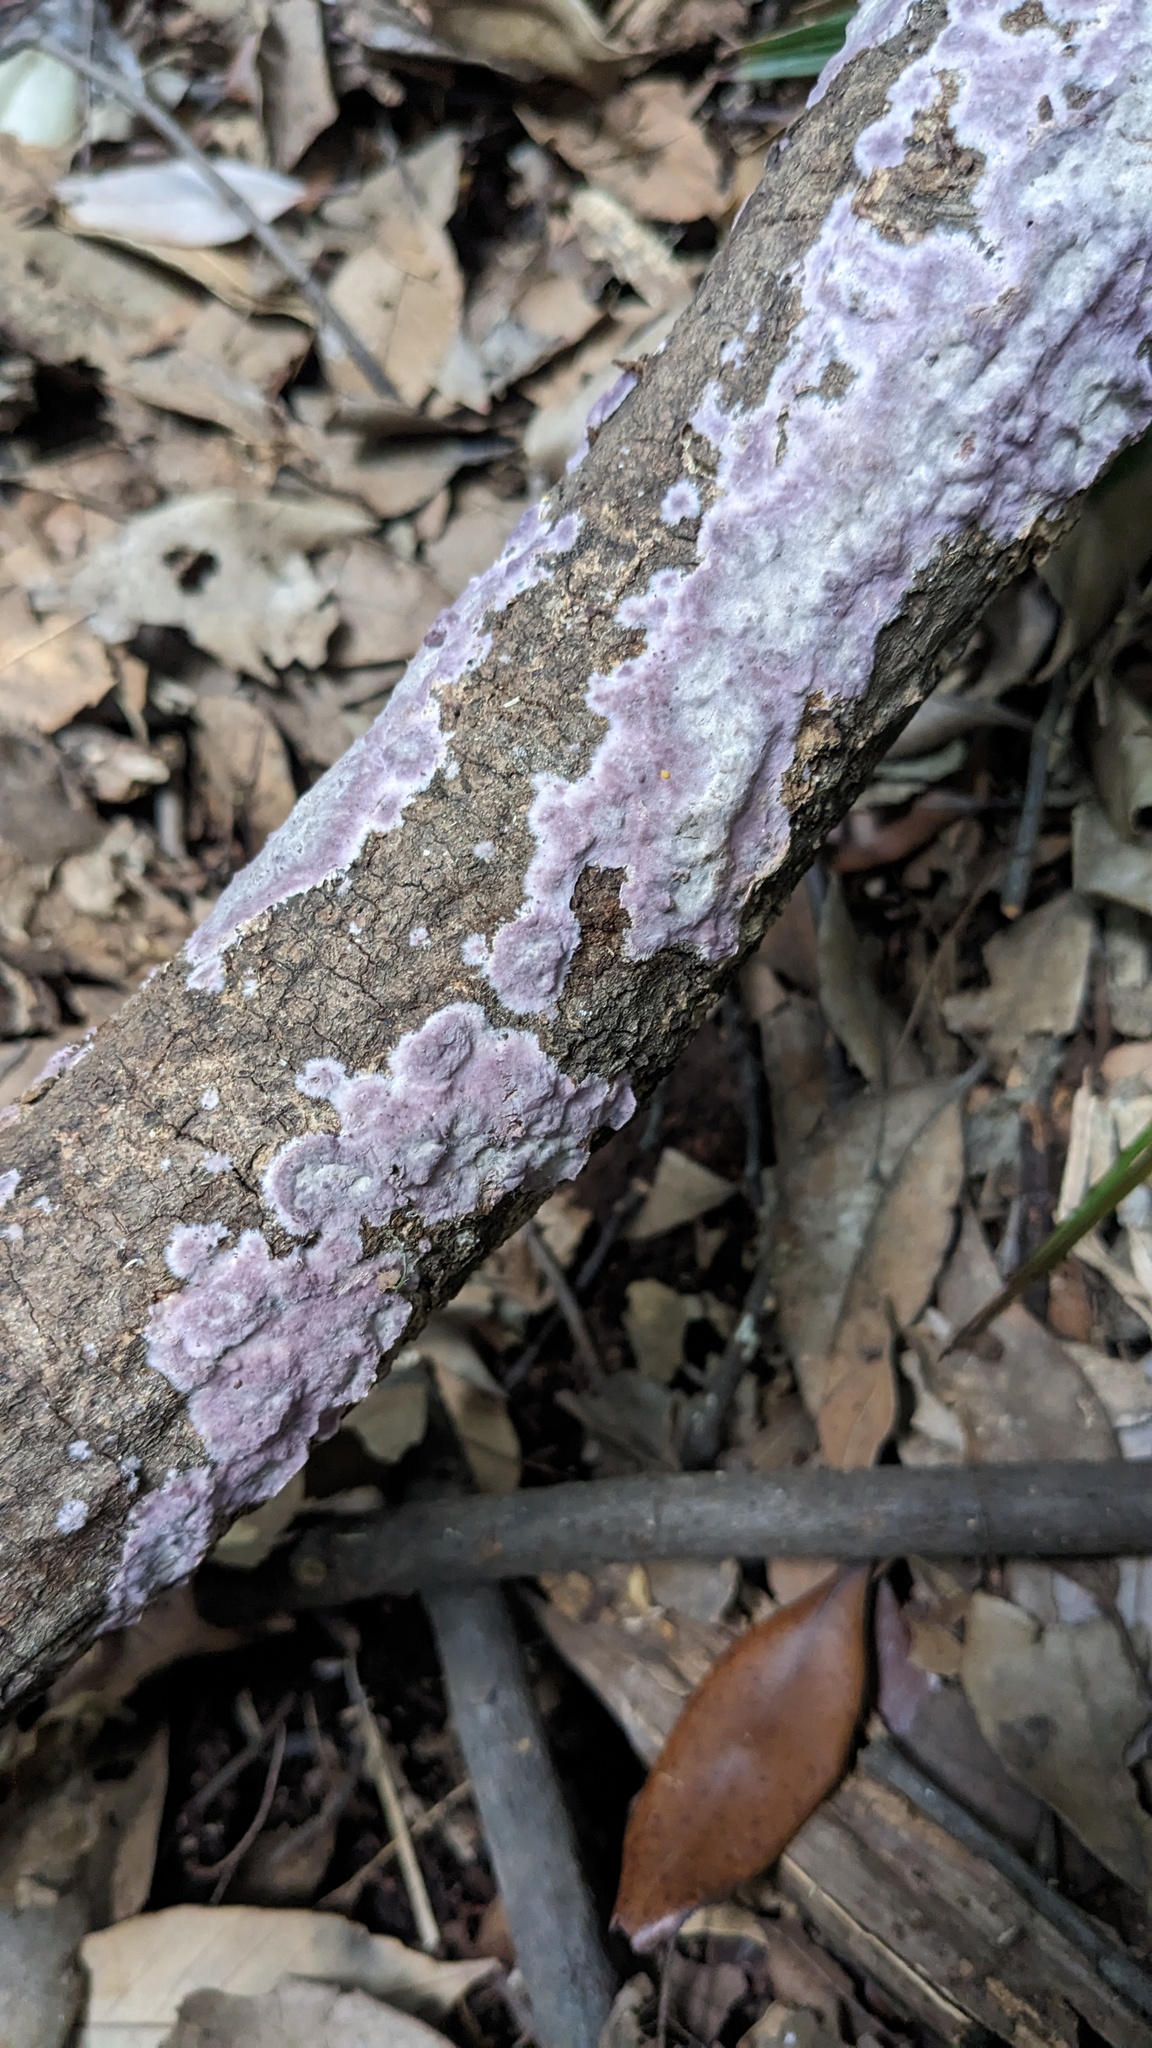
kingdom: Fungi
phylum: Basidiomycota
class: Agaricomycetes
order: Polyporales
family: Phanerochaetaceae
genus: Phlebiopsis
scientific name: Phlebiopsis crassa
